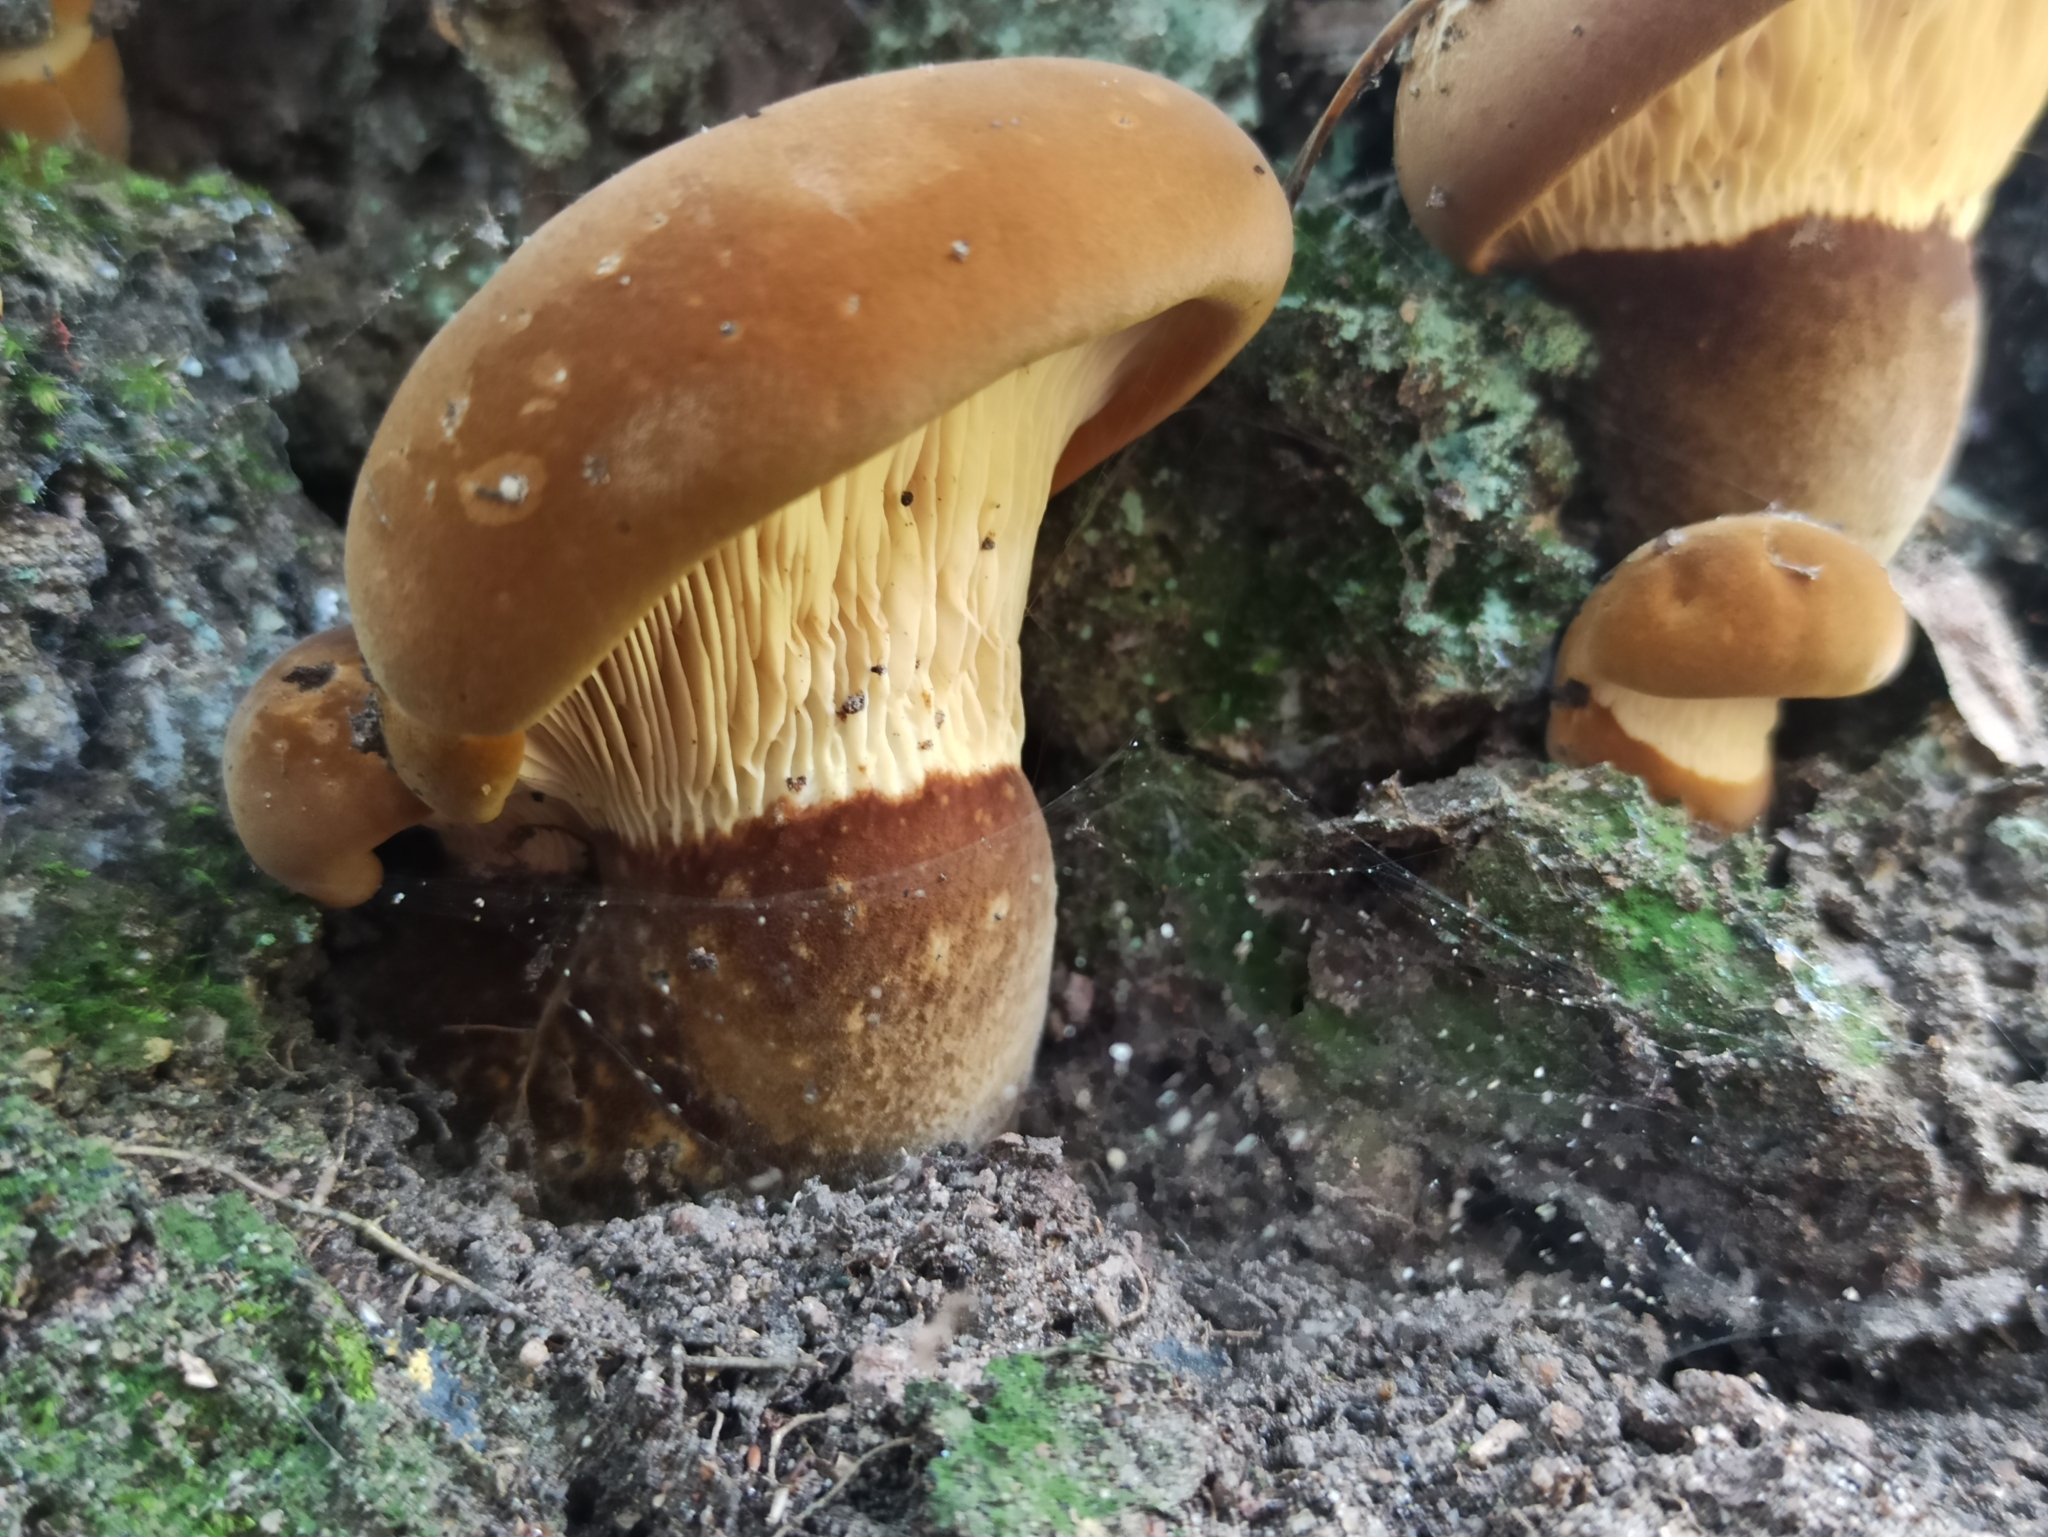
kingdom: Fungi
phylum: Basidiomycota
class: Agaricomycetes
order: Boletales
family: Tapinellaceae
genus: Tapinella
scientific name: Tapinella atrotomentosa
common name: Velvet rollrim
